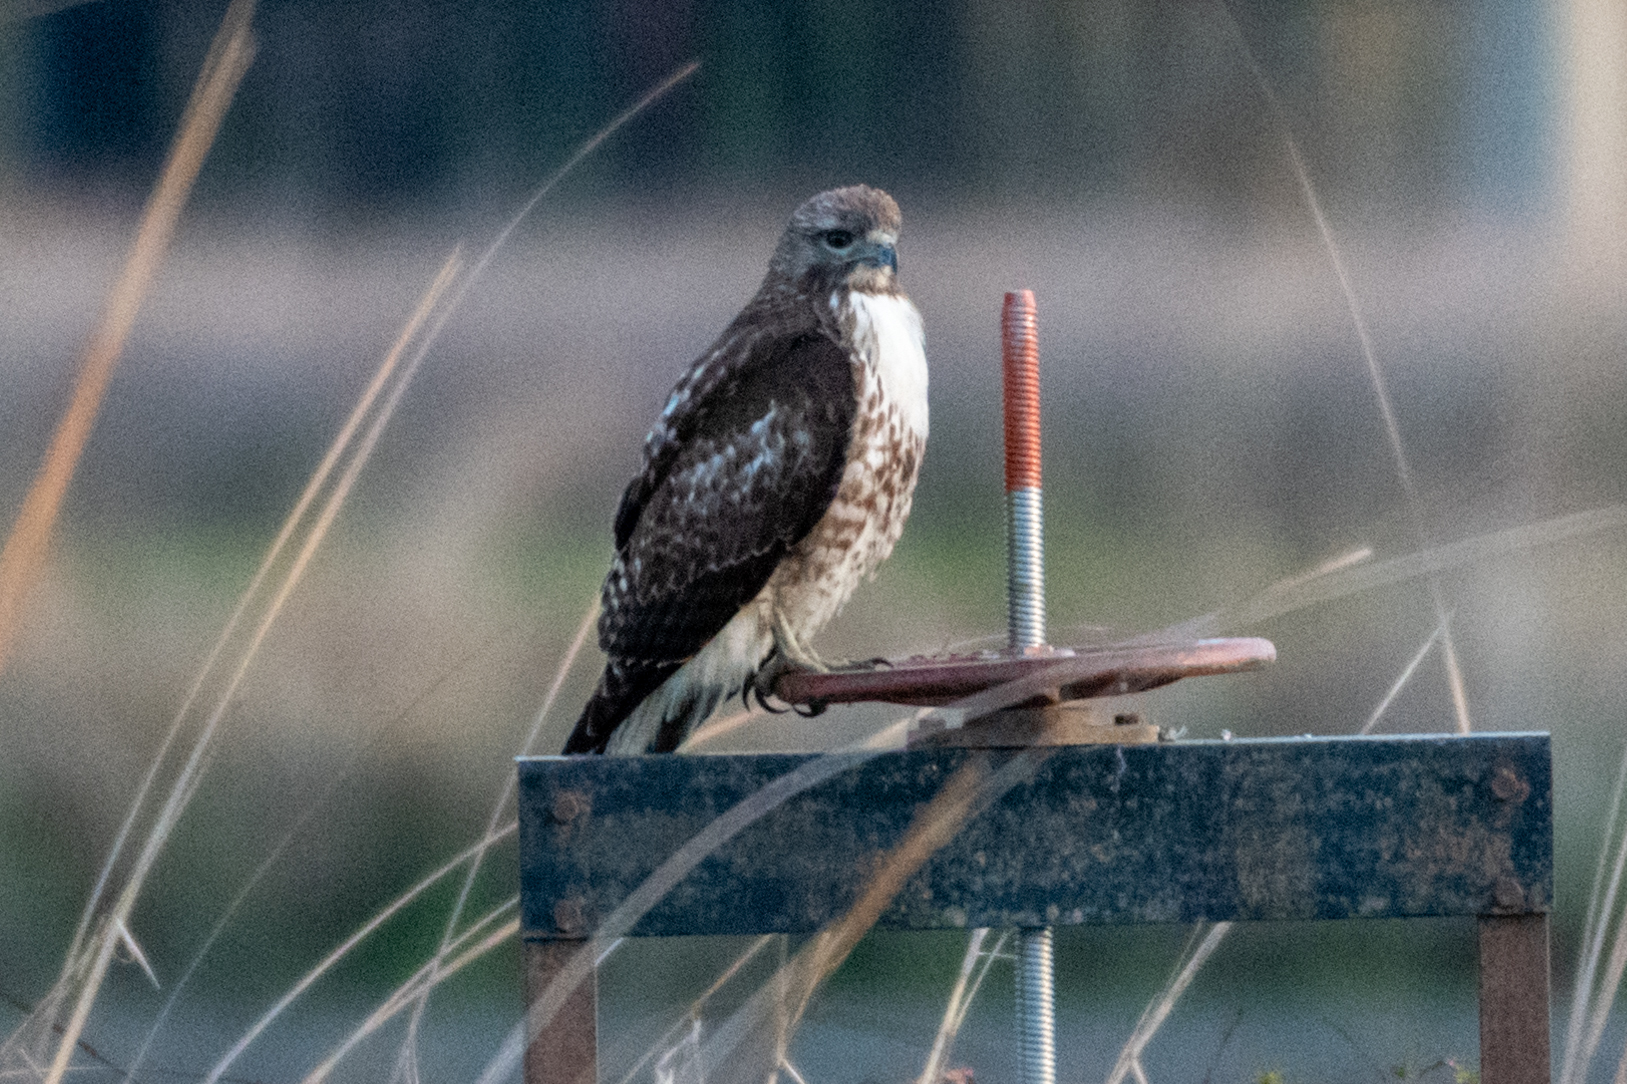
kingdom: Animalia
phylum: Chordata
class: Aves
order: Accipitriformes
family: Accipitridae
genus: Buteo
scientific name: Buteo jamaicensis
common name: Red-tailed hawk
